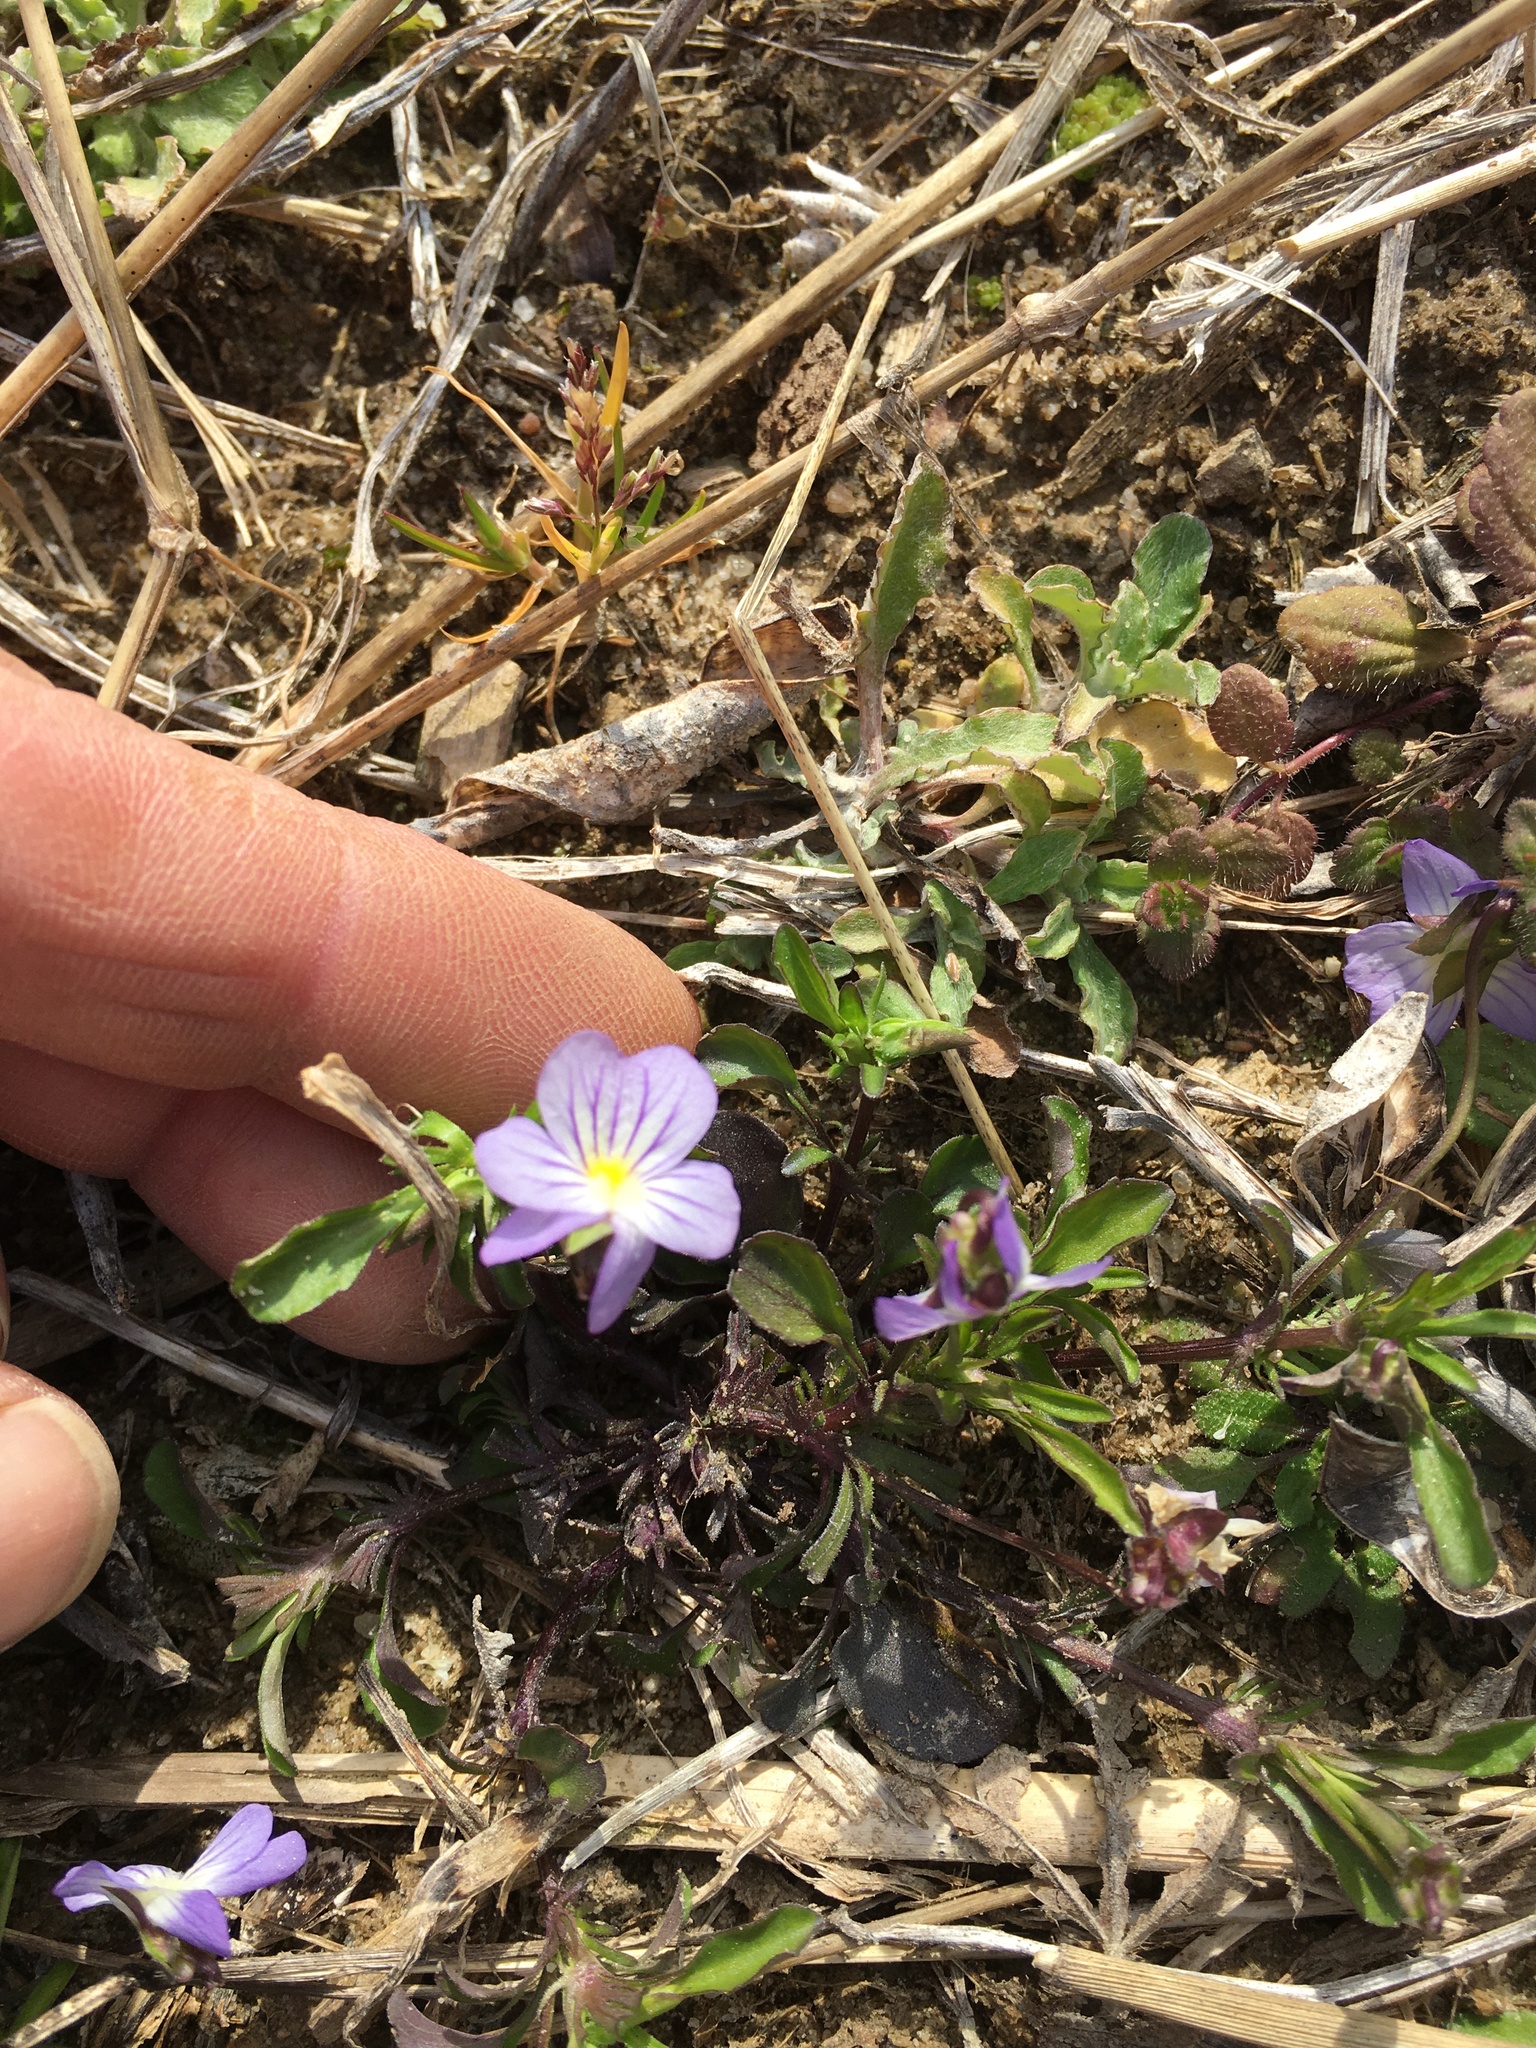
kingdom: Plantae
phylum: Tracheophyta
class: Magnoliopsida
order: Malpighiales
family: Violaceae
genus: Viola
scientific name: Viola rafinesquei
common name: American field pansy
